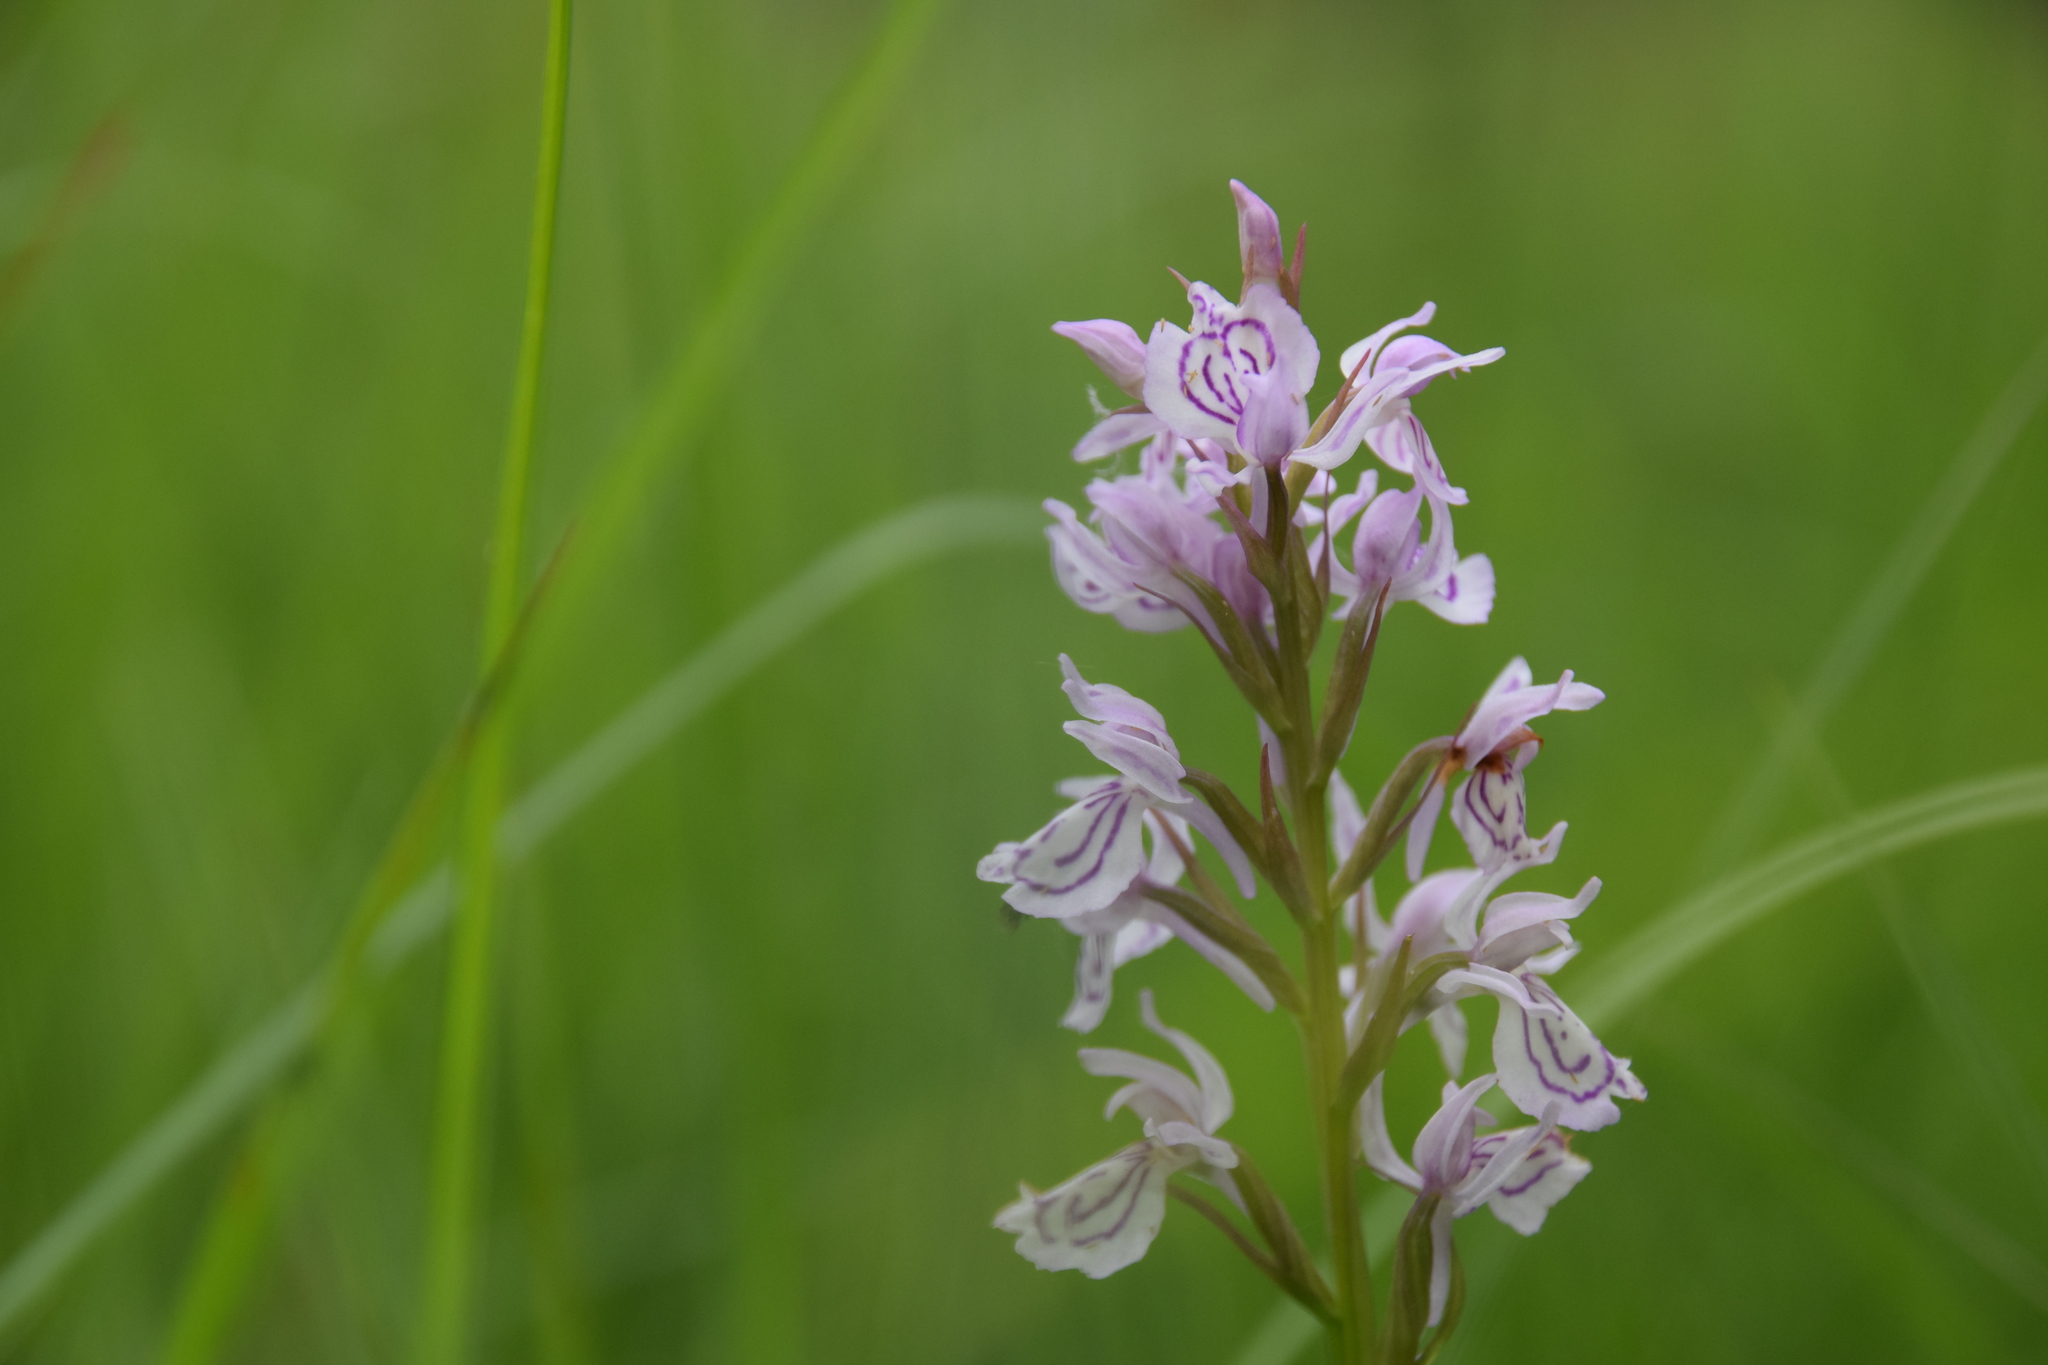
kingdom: Plantae
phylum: Tracheophyta
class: Liliopsida
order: Asparagales
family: Orchidaceae
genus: Dactylorhiza
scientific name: Dactylorhiza maculata
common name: Heath spotted-orchid
